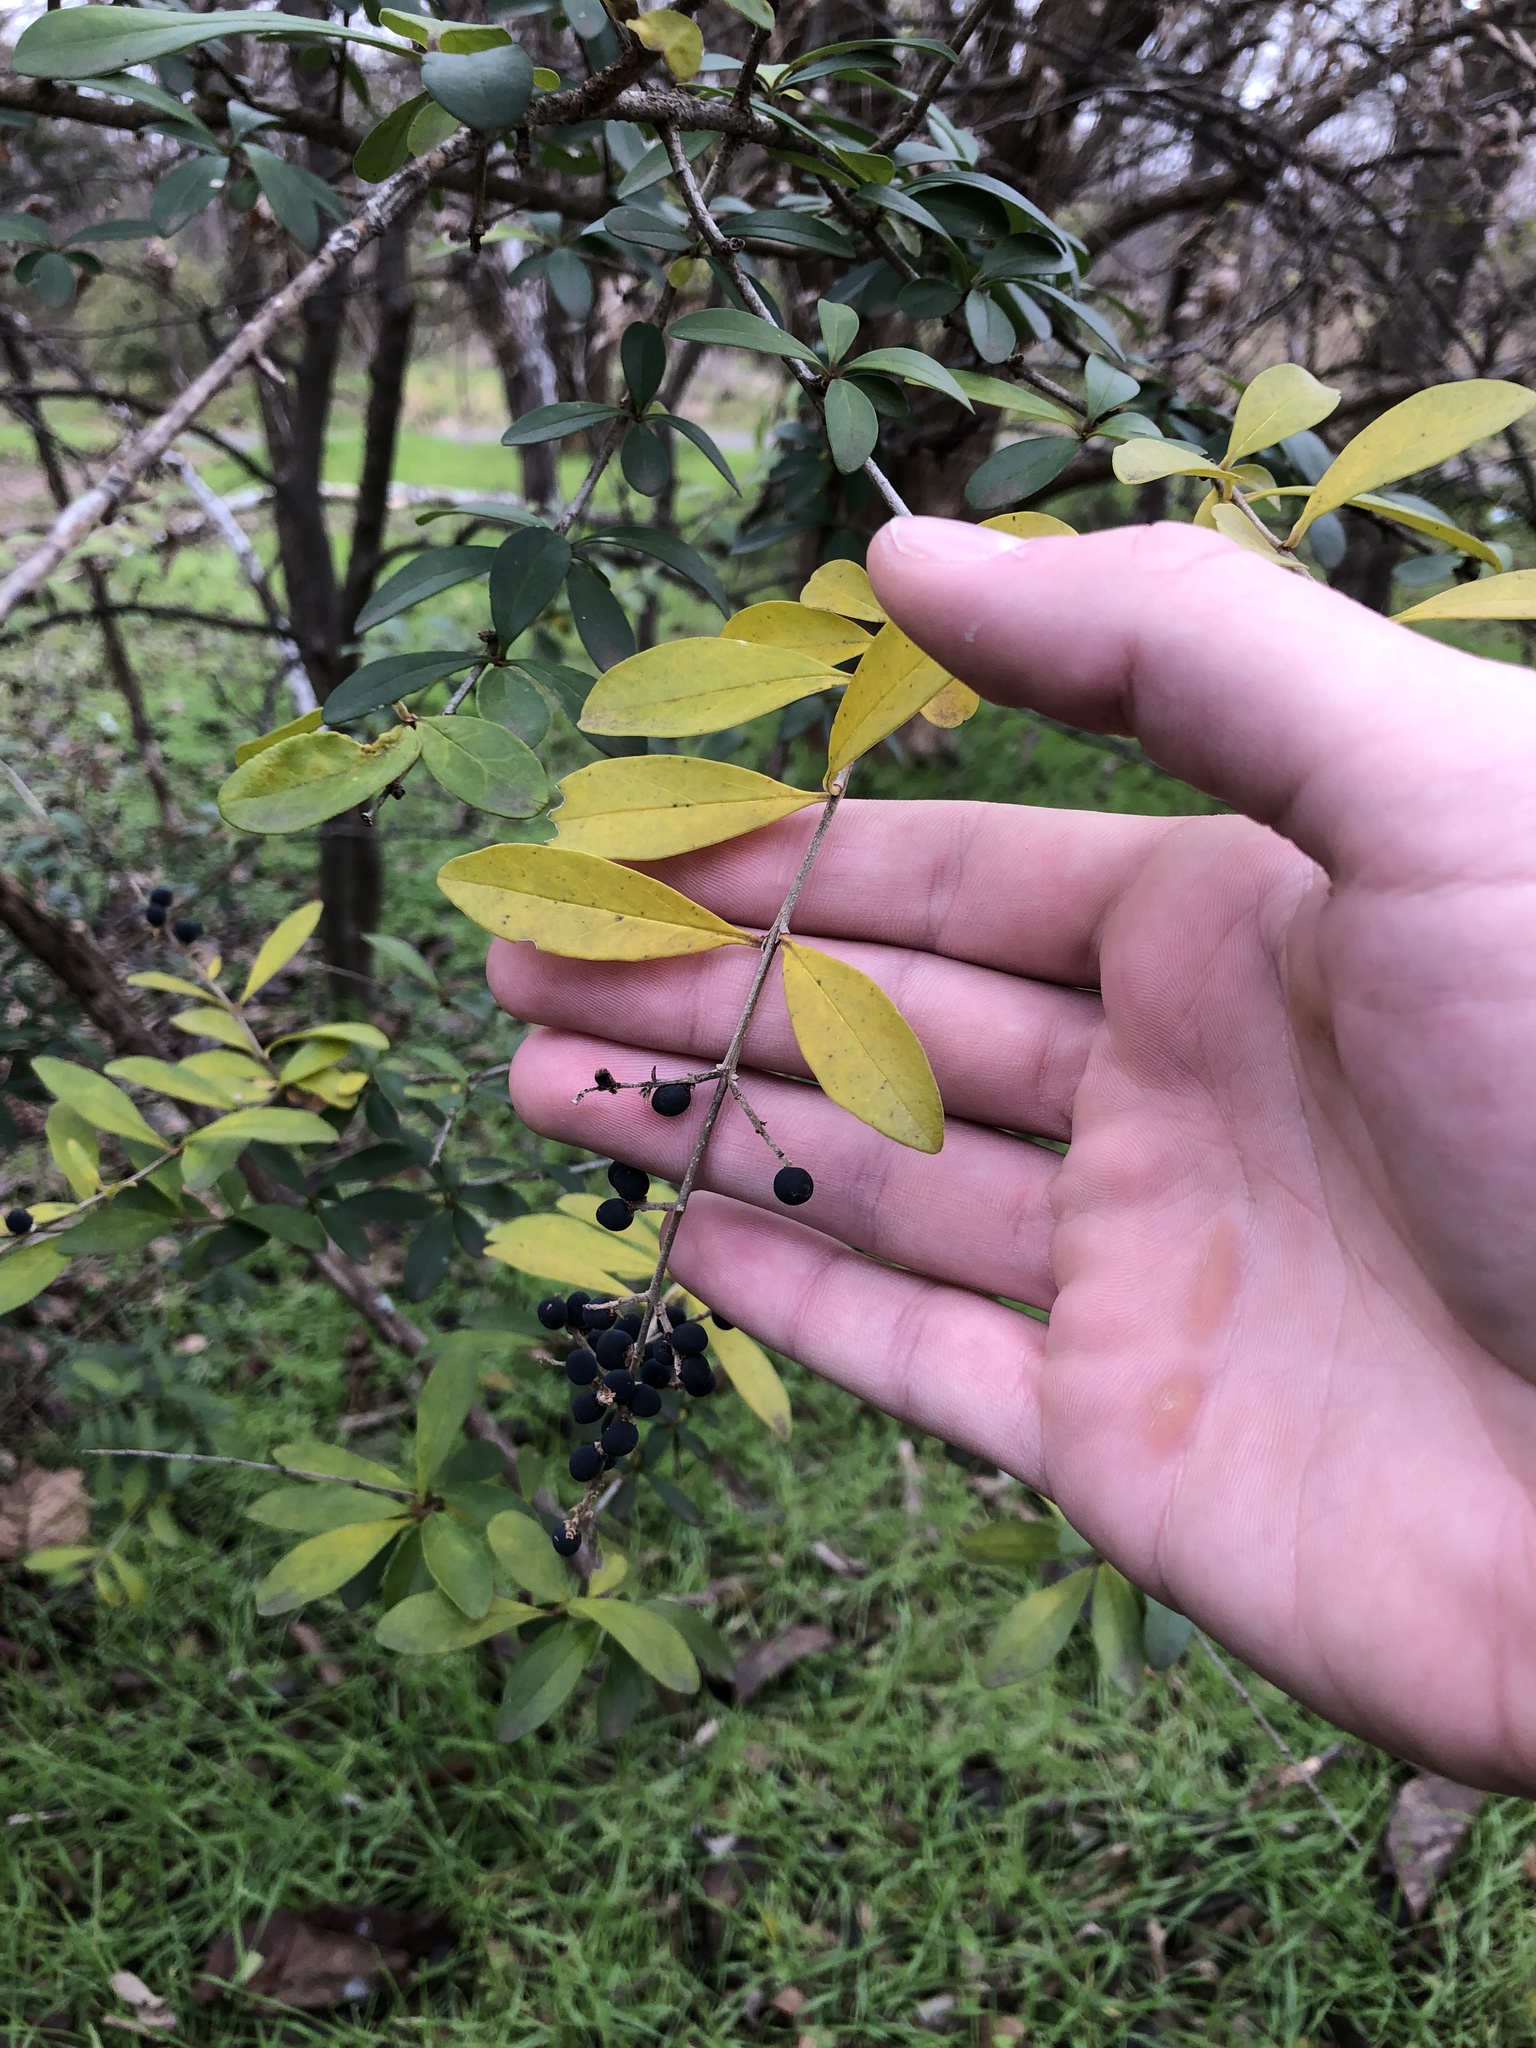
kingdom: Plantae
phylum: Tracheophyta
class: Magnoliopsida
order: Lamiales
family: Oleaceae
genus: Ligustrum
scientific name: Ligustrum quihoui
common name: Waxyleaf privet
